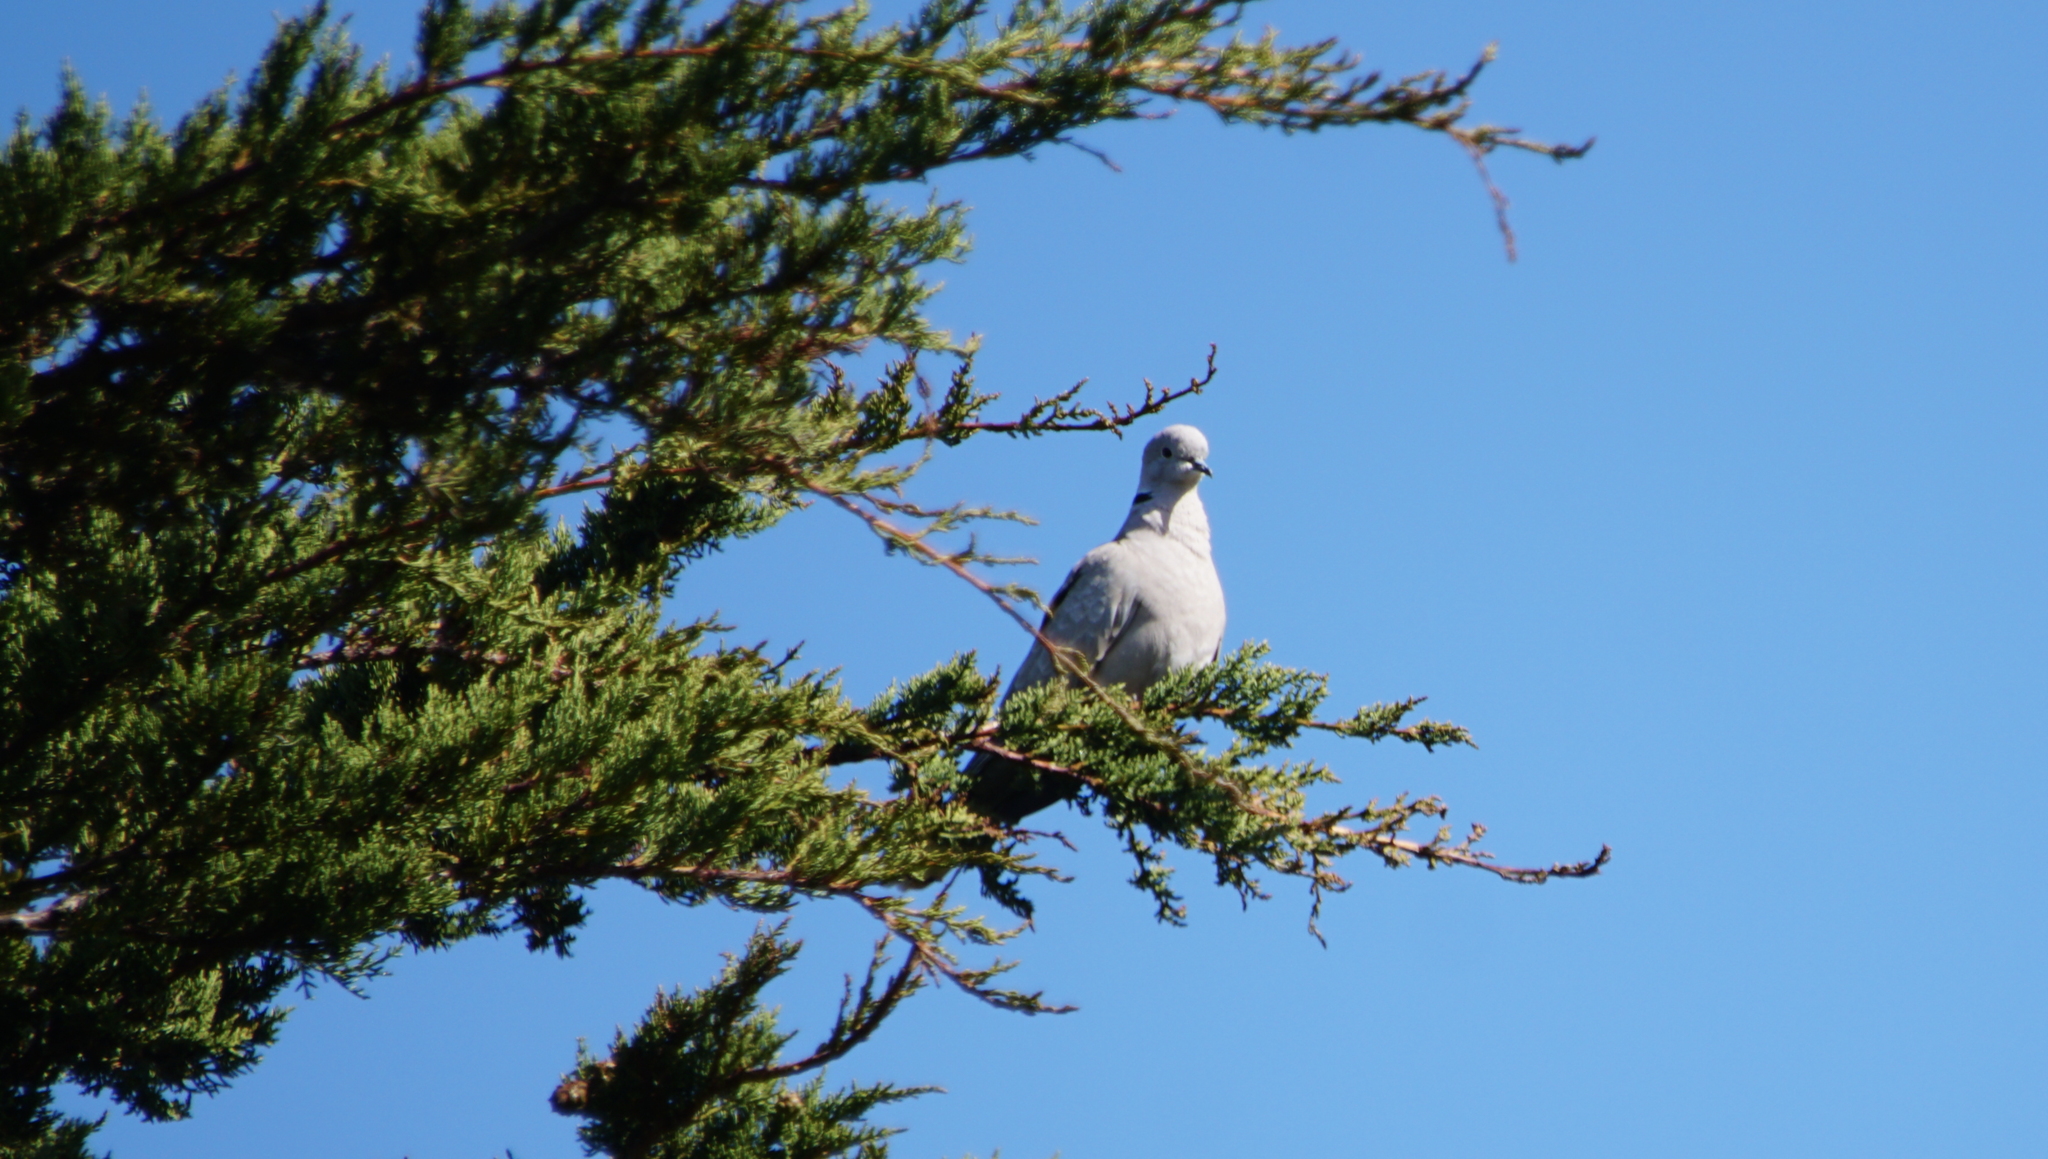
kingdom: Animalia
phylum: Chordata
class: Aves
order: Columbiformes
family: Columbidae
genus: Streptopelia
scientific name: Streptopelia decaocto
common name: Eurasian collared dove
